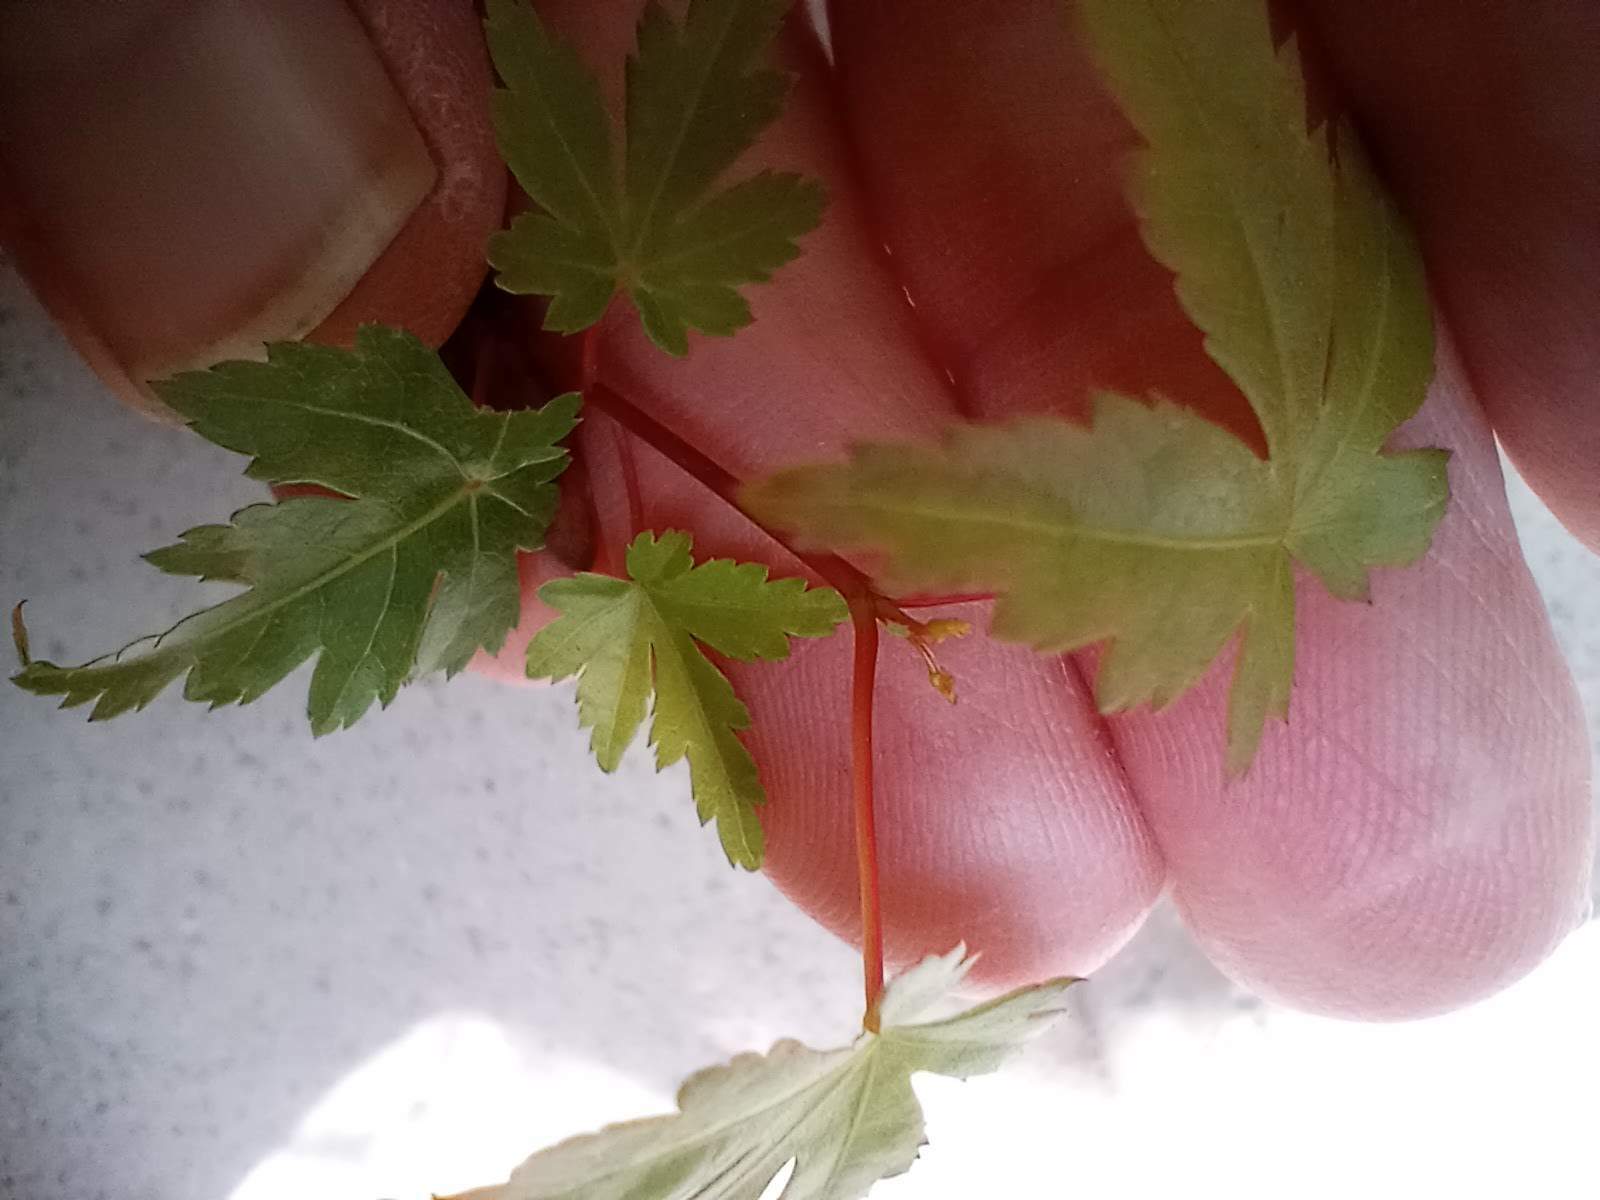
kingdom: Plantae
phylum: Tracheophyta
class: Magnoliopsida
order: Sapindales
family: Sapindaceae
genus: Acer
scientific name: Acer palmatum
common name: Japanese maple
